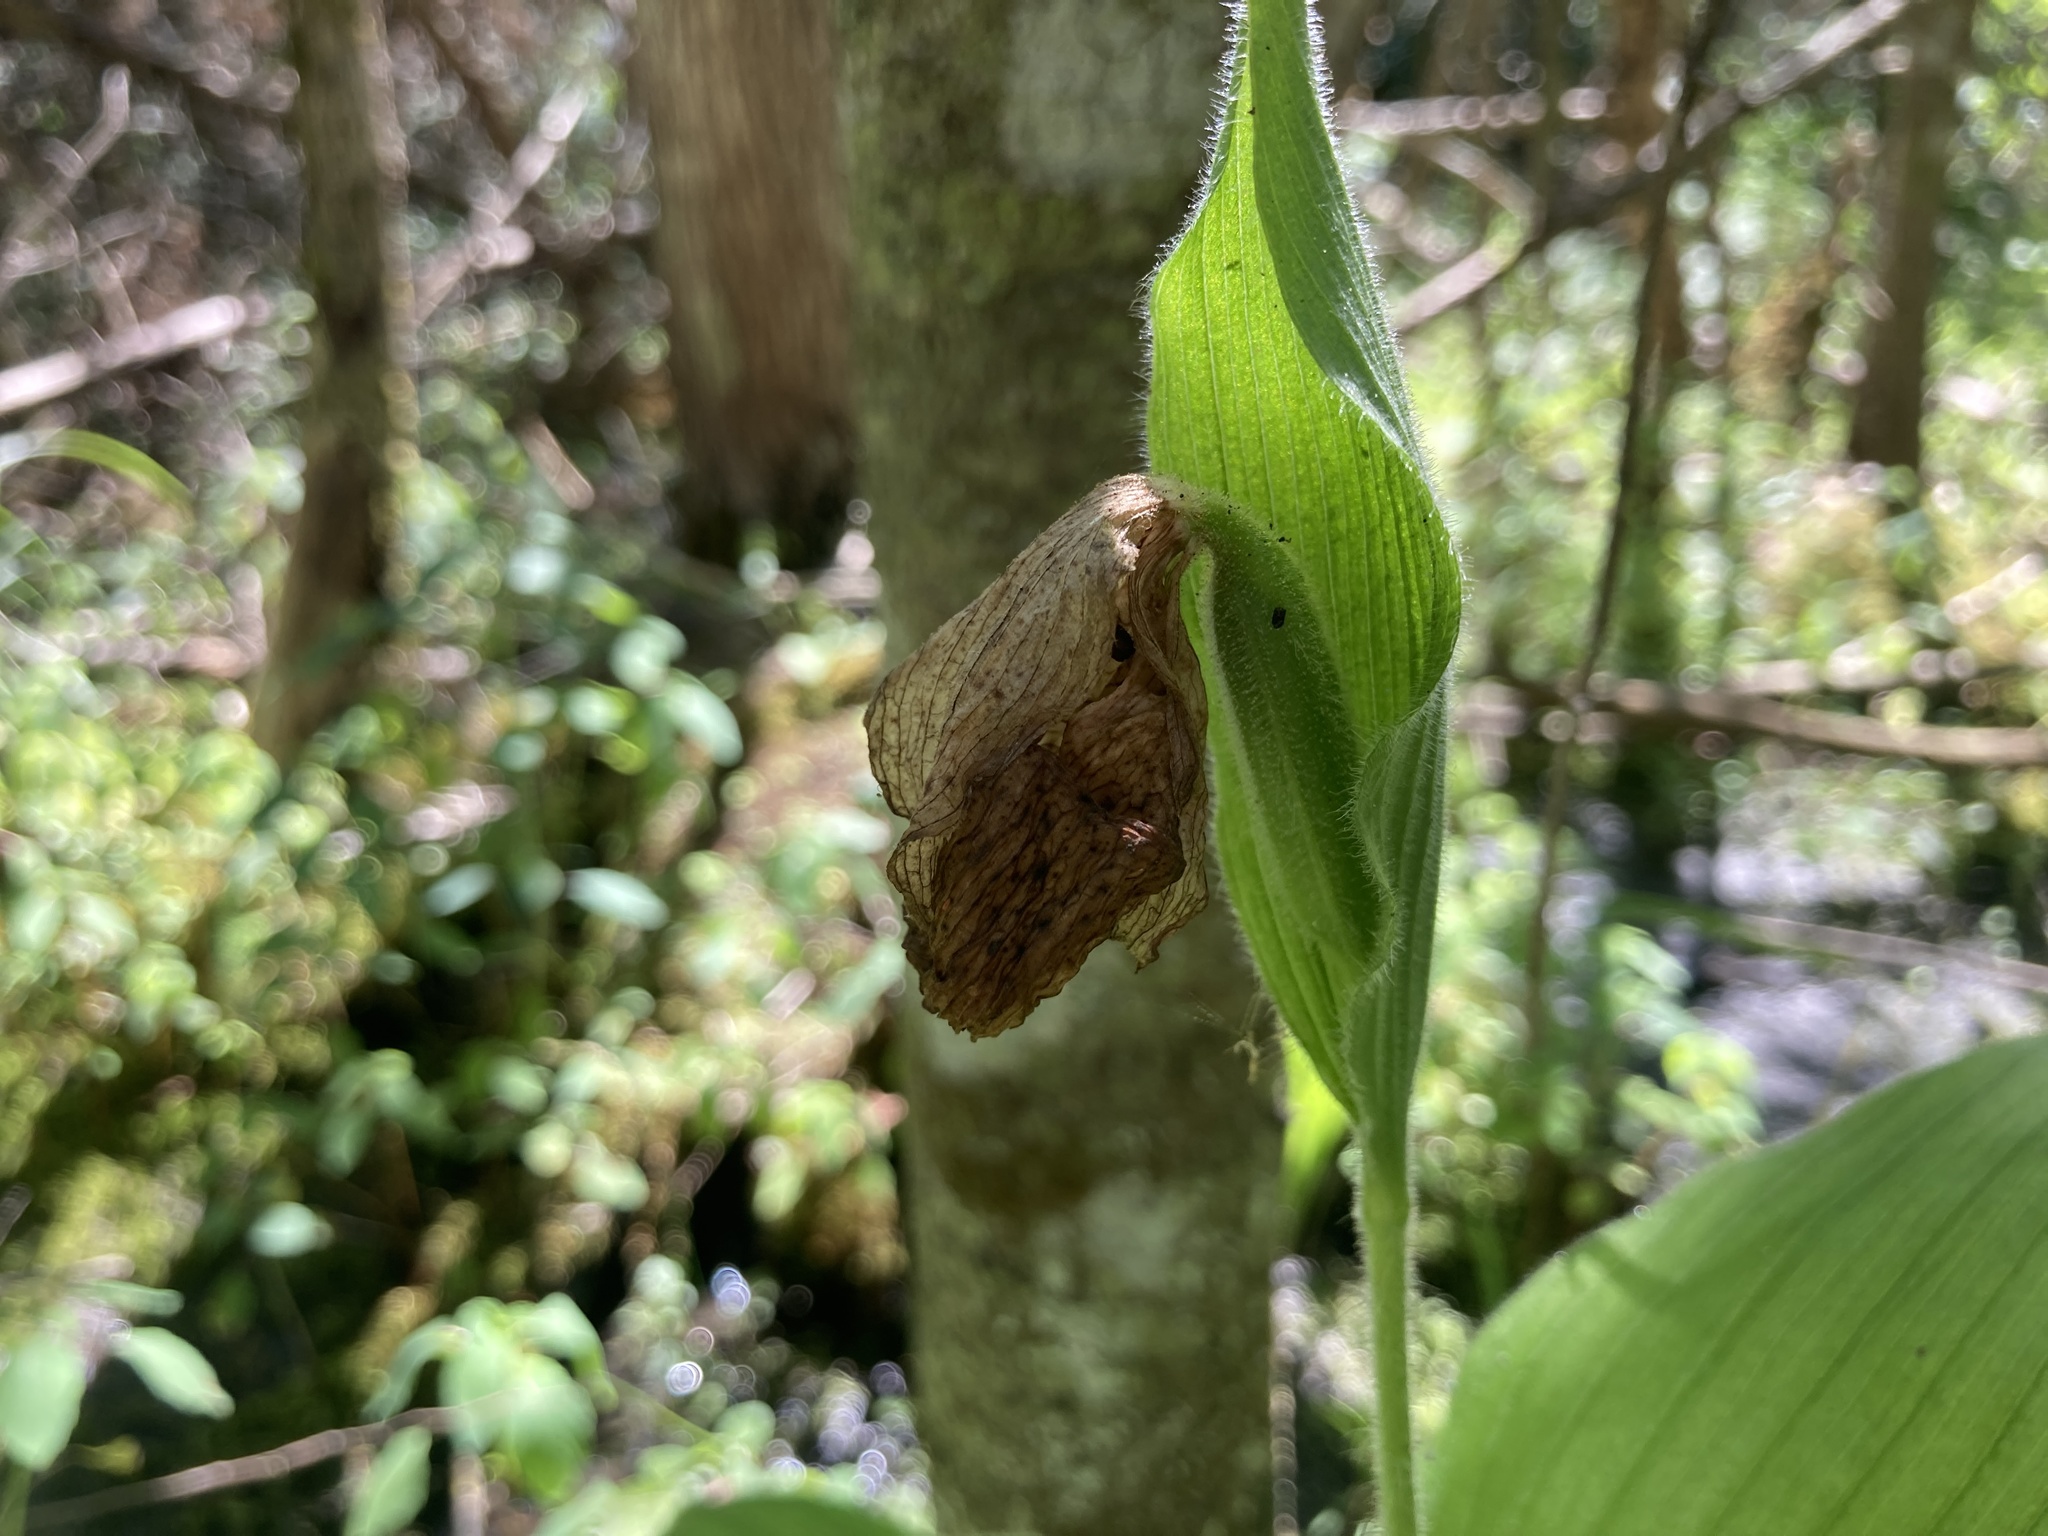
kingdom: Plantae
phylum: Tracheophyta
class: Liliopsida
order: Asparagales
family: Orchidaceae
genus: Cypripedium
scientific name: Cypripedium reginae
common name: Queen lady's-slipper
